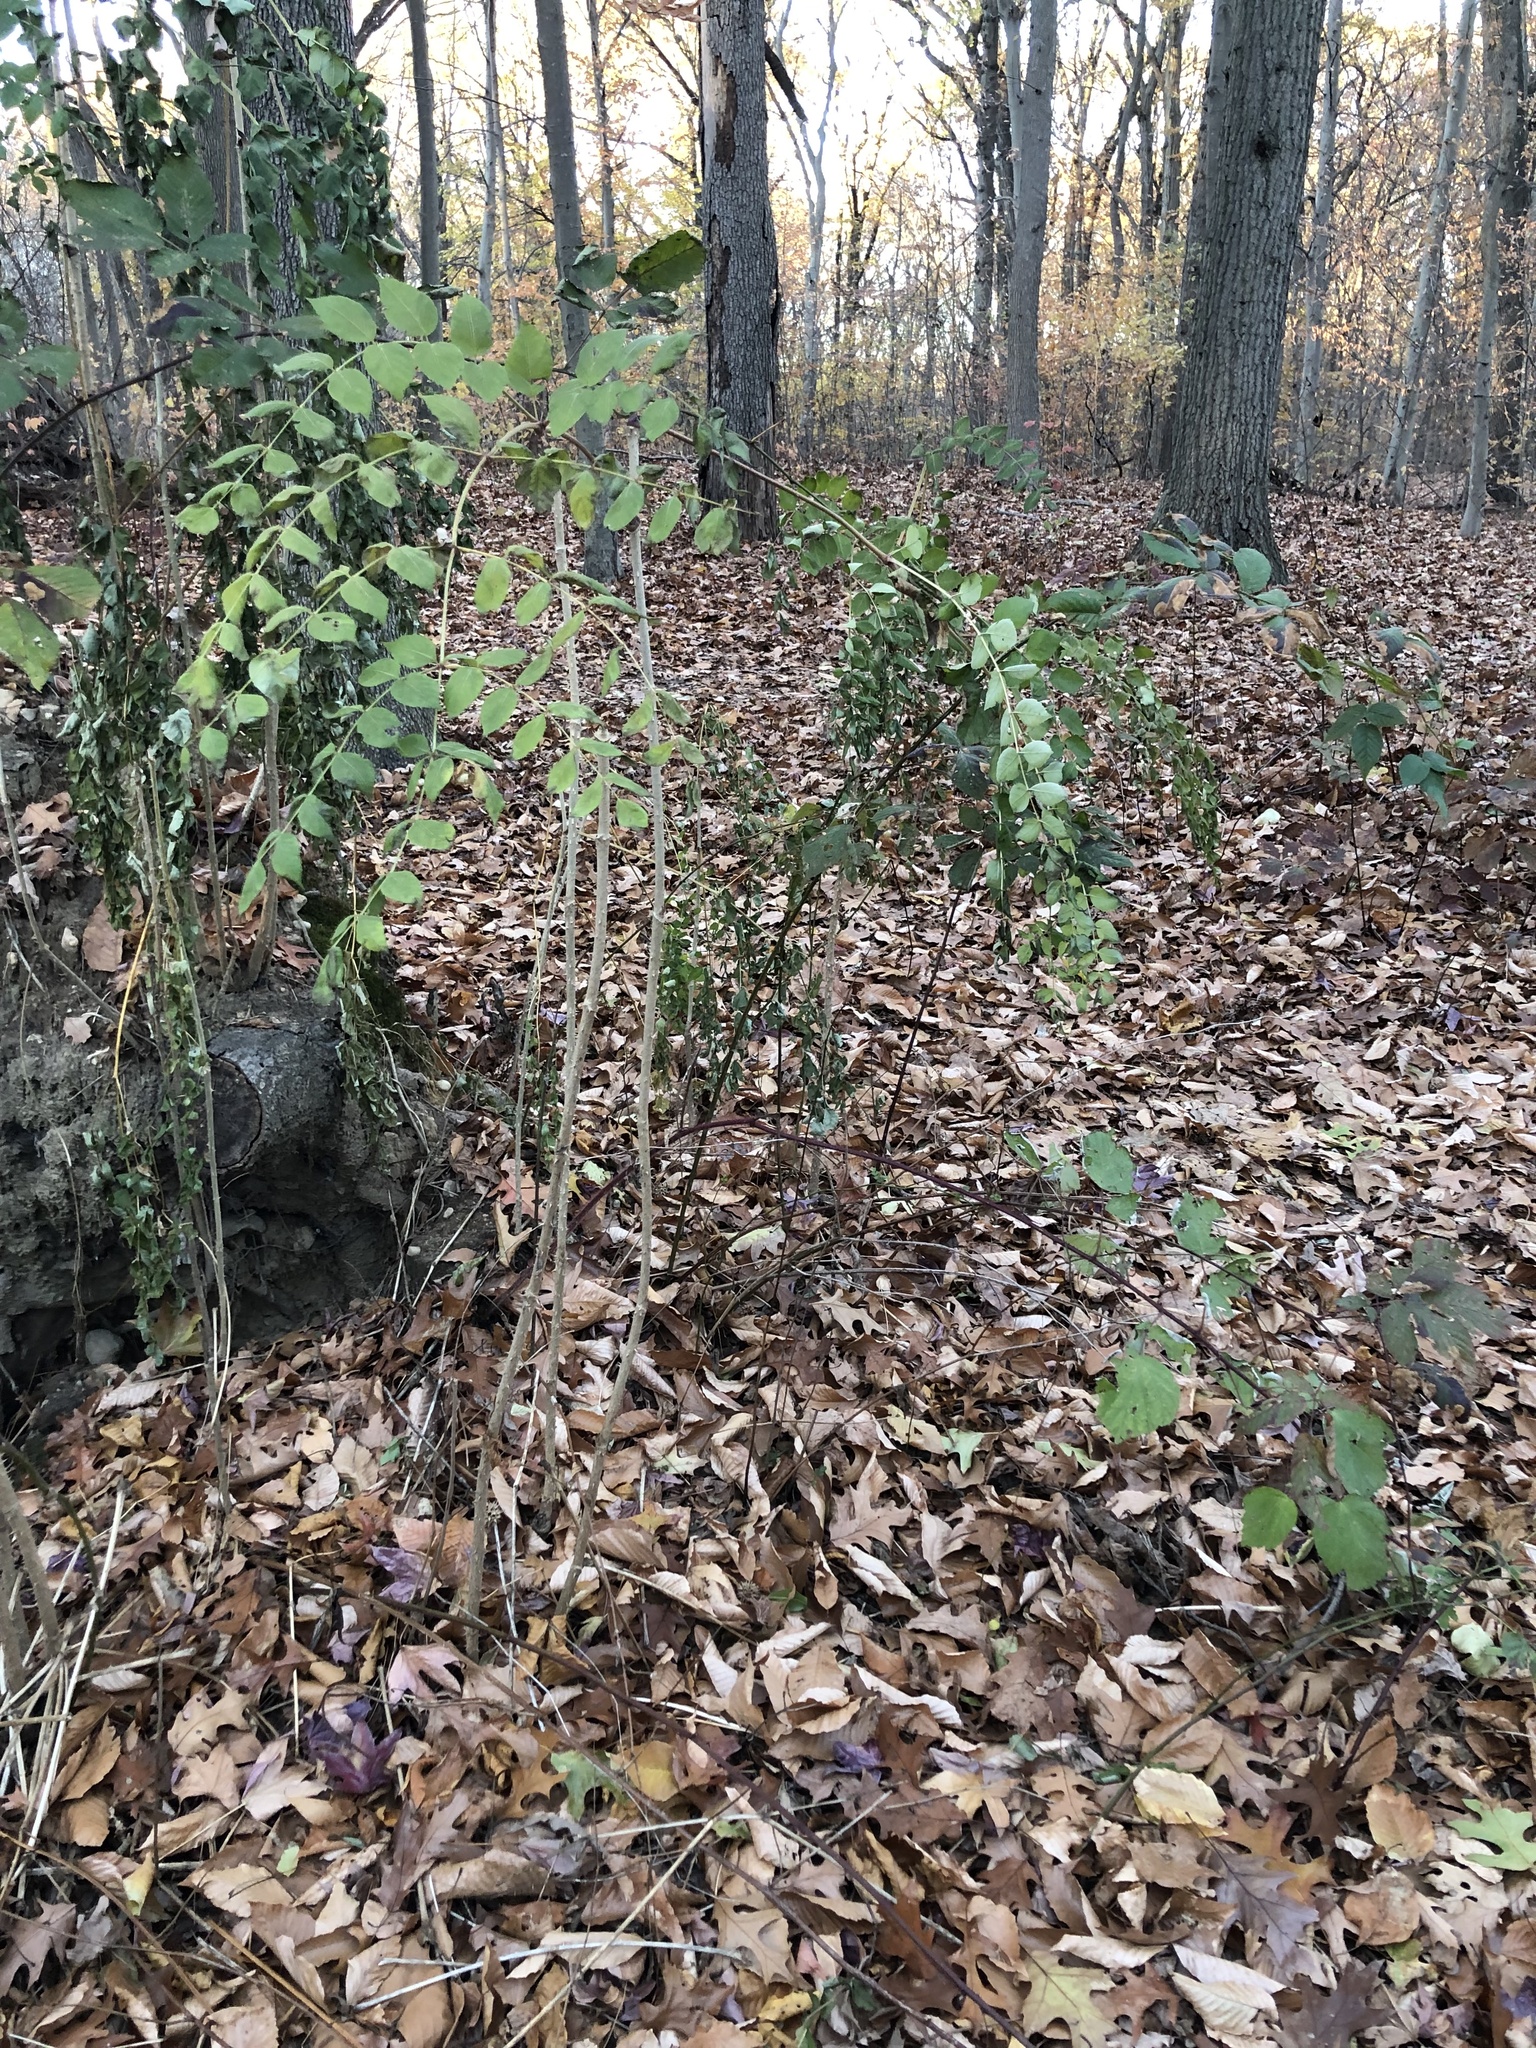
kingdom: Plantae
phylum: Tracheophyta
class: Magnoliopsida
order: Apiales
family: Araliaceae
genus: Aralia
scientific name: Aralia elata
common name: Japanese angelica-tree
